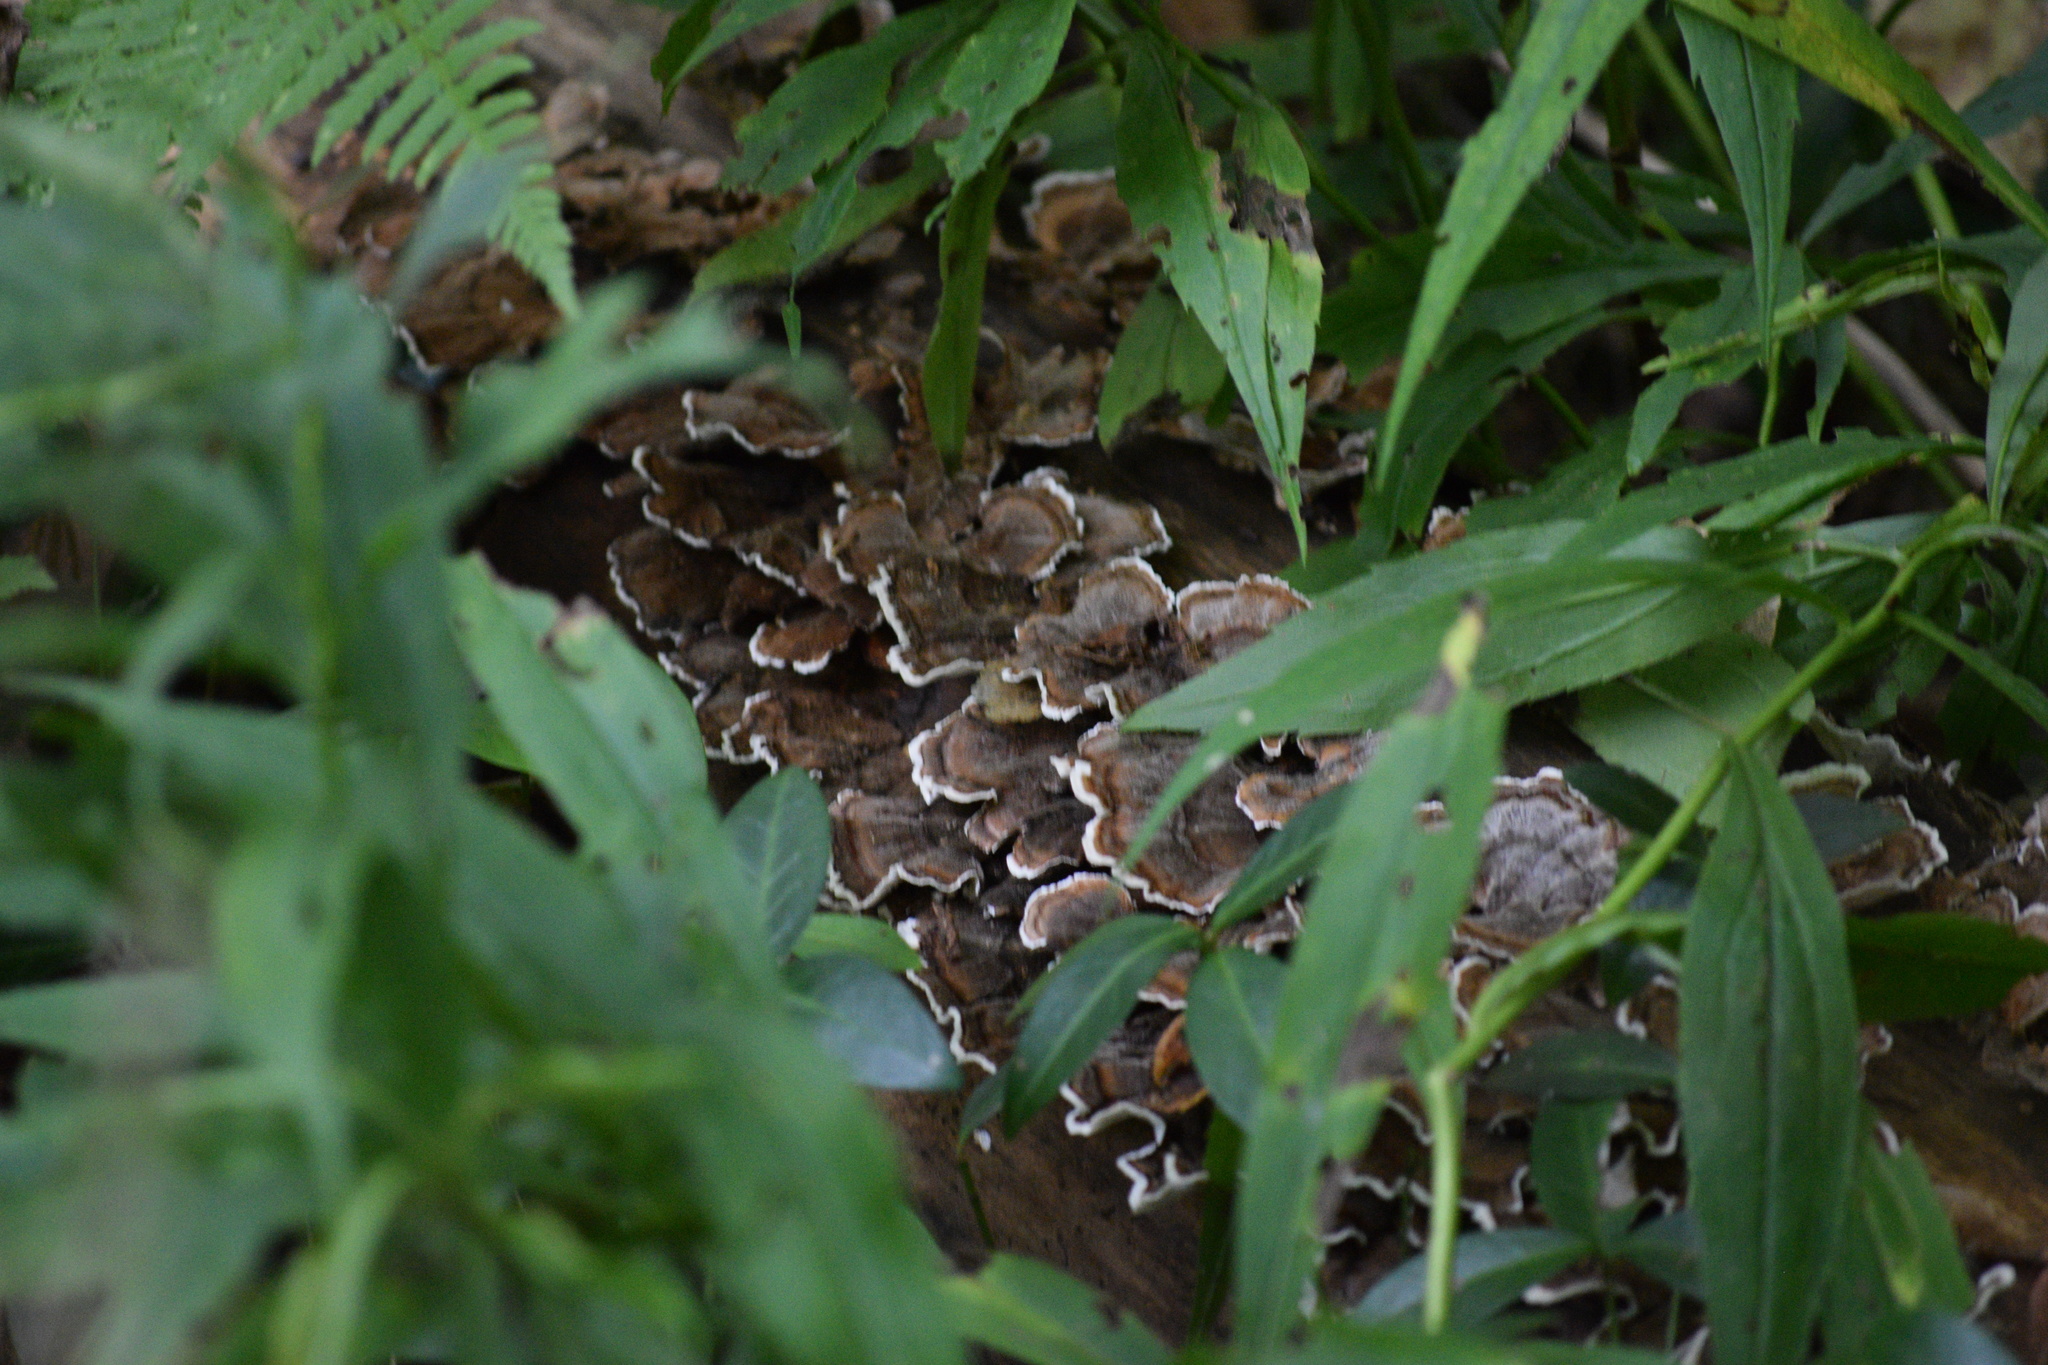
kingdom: Fungi
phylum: Basidiomycota
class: Agaricomycetes
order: Polyporales
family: Polyporaceae
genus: Trametes
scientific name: Trametes versicolor
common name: Turkeytail
